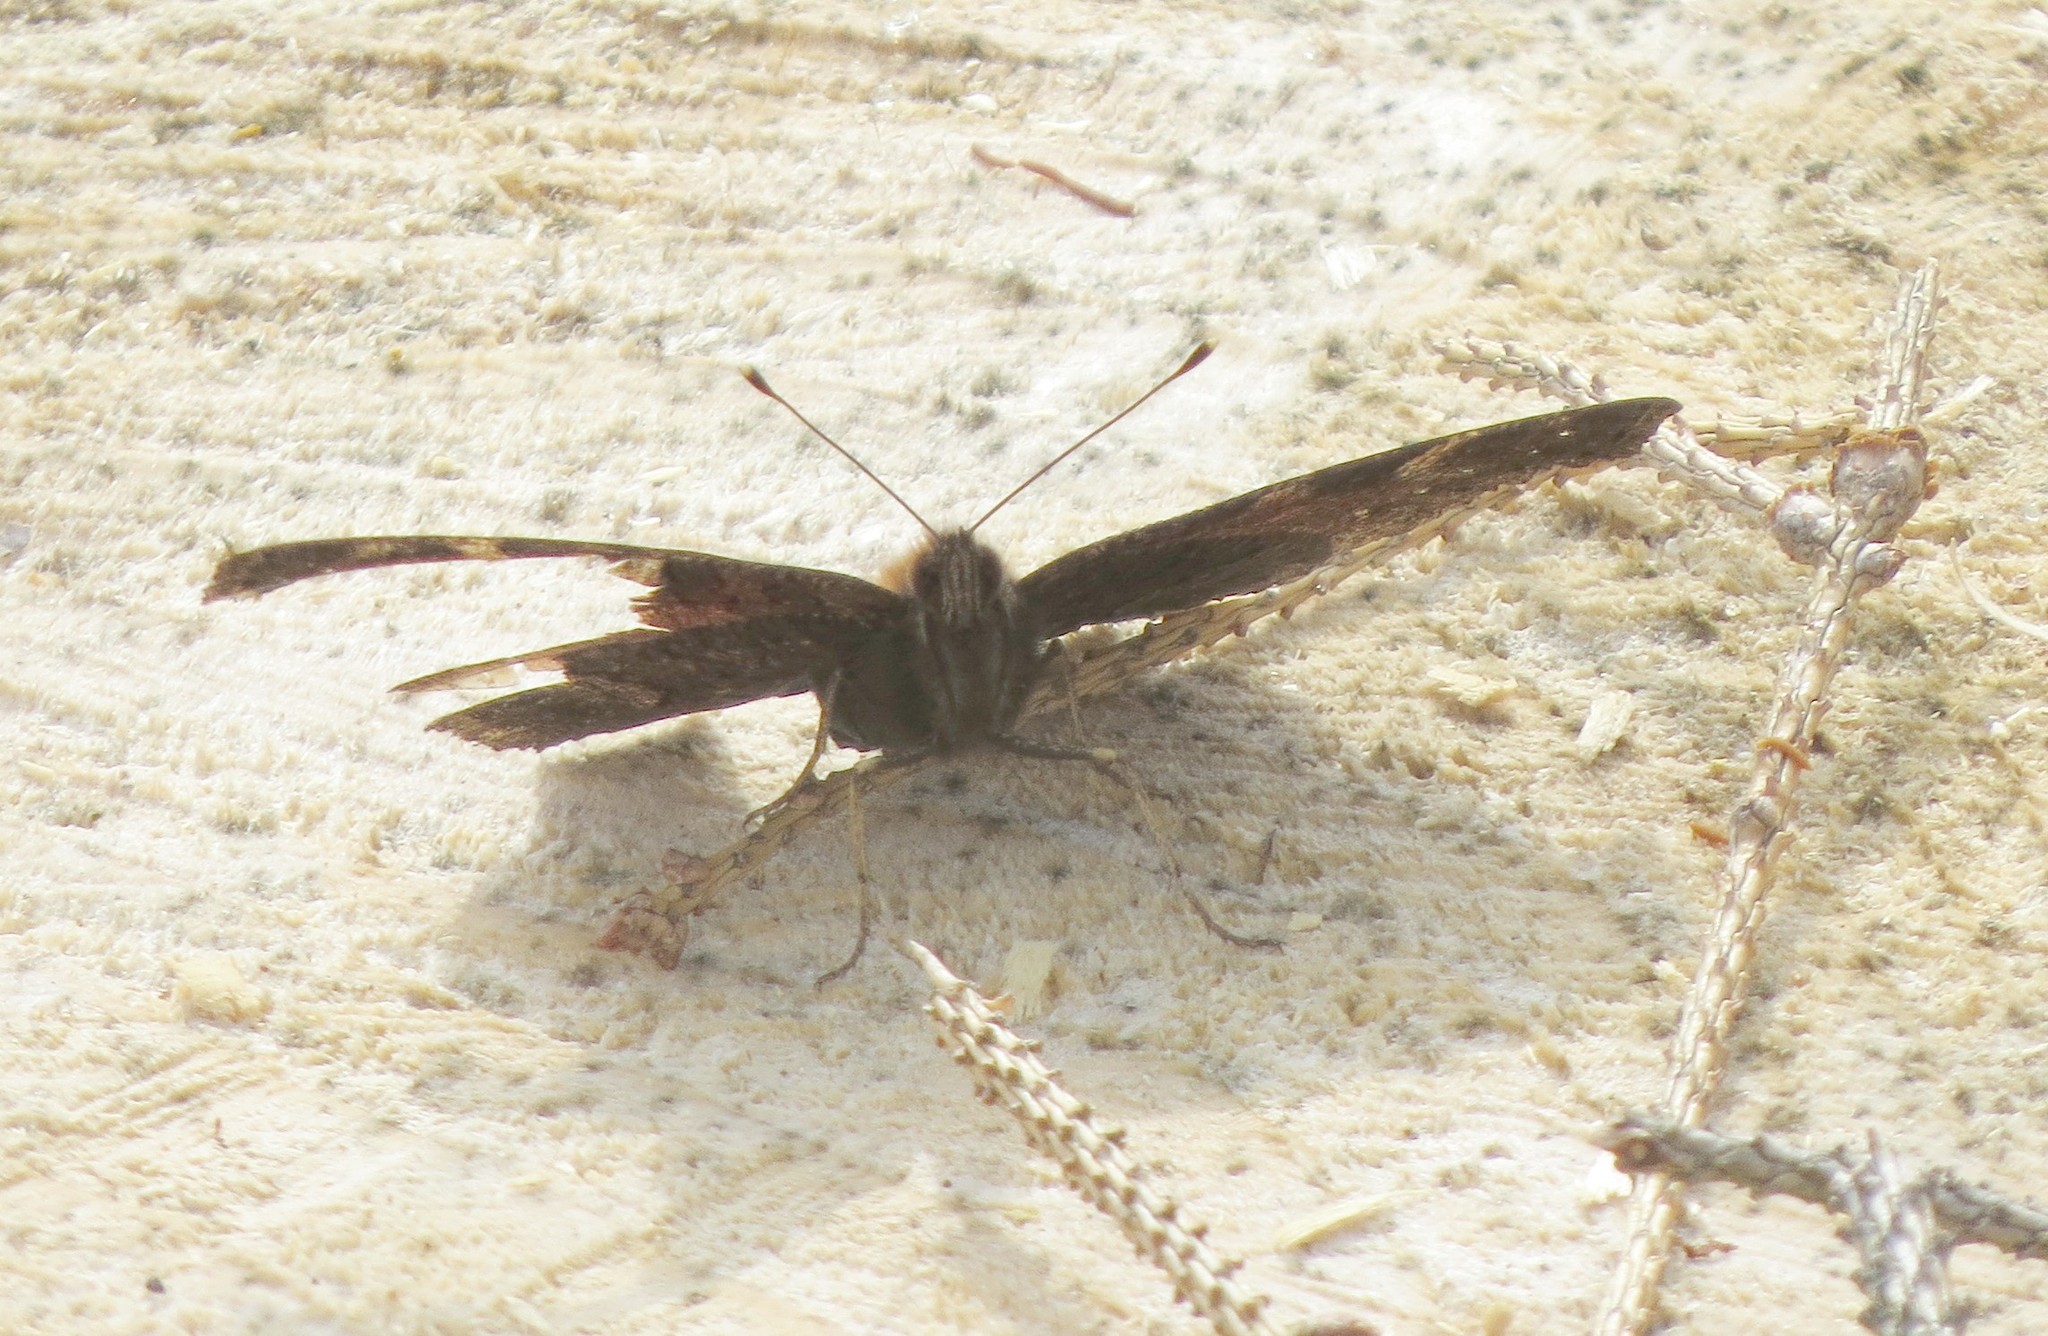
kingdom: Animalia
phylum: Arthropoda
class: Insecta
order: Lepidoptera
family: Nymphalidae
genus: Aglais
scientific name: Aglais io
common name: Peacock
